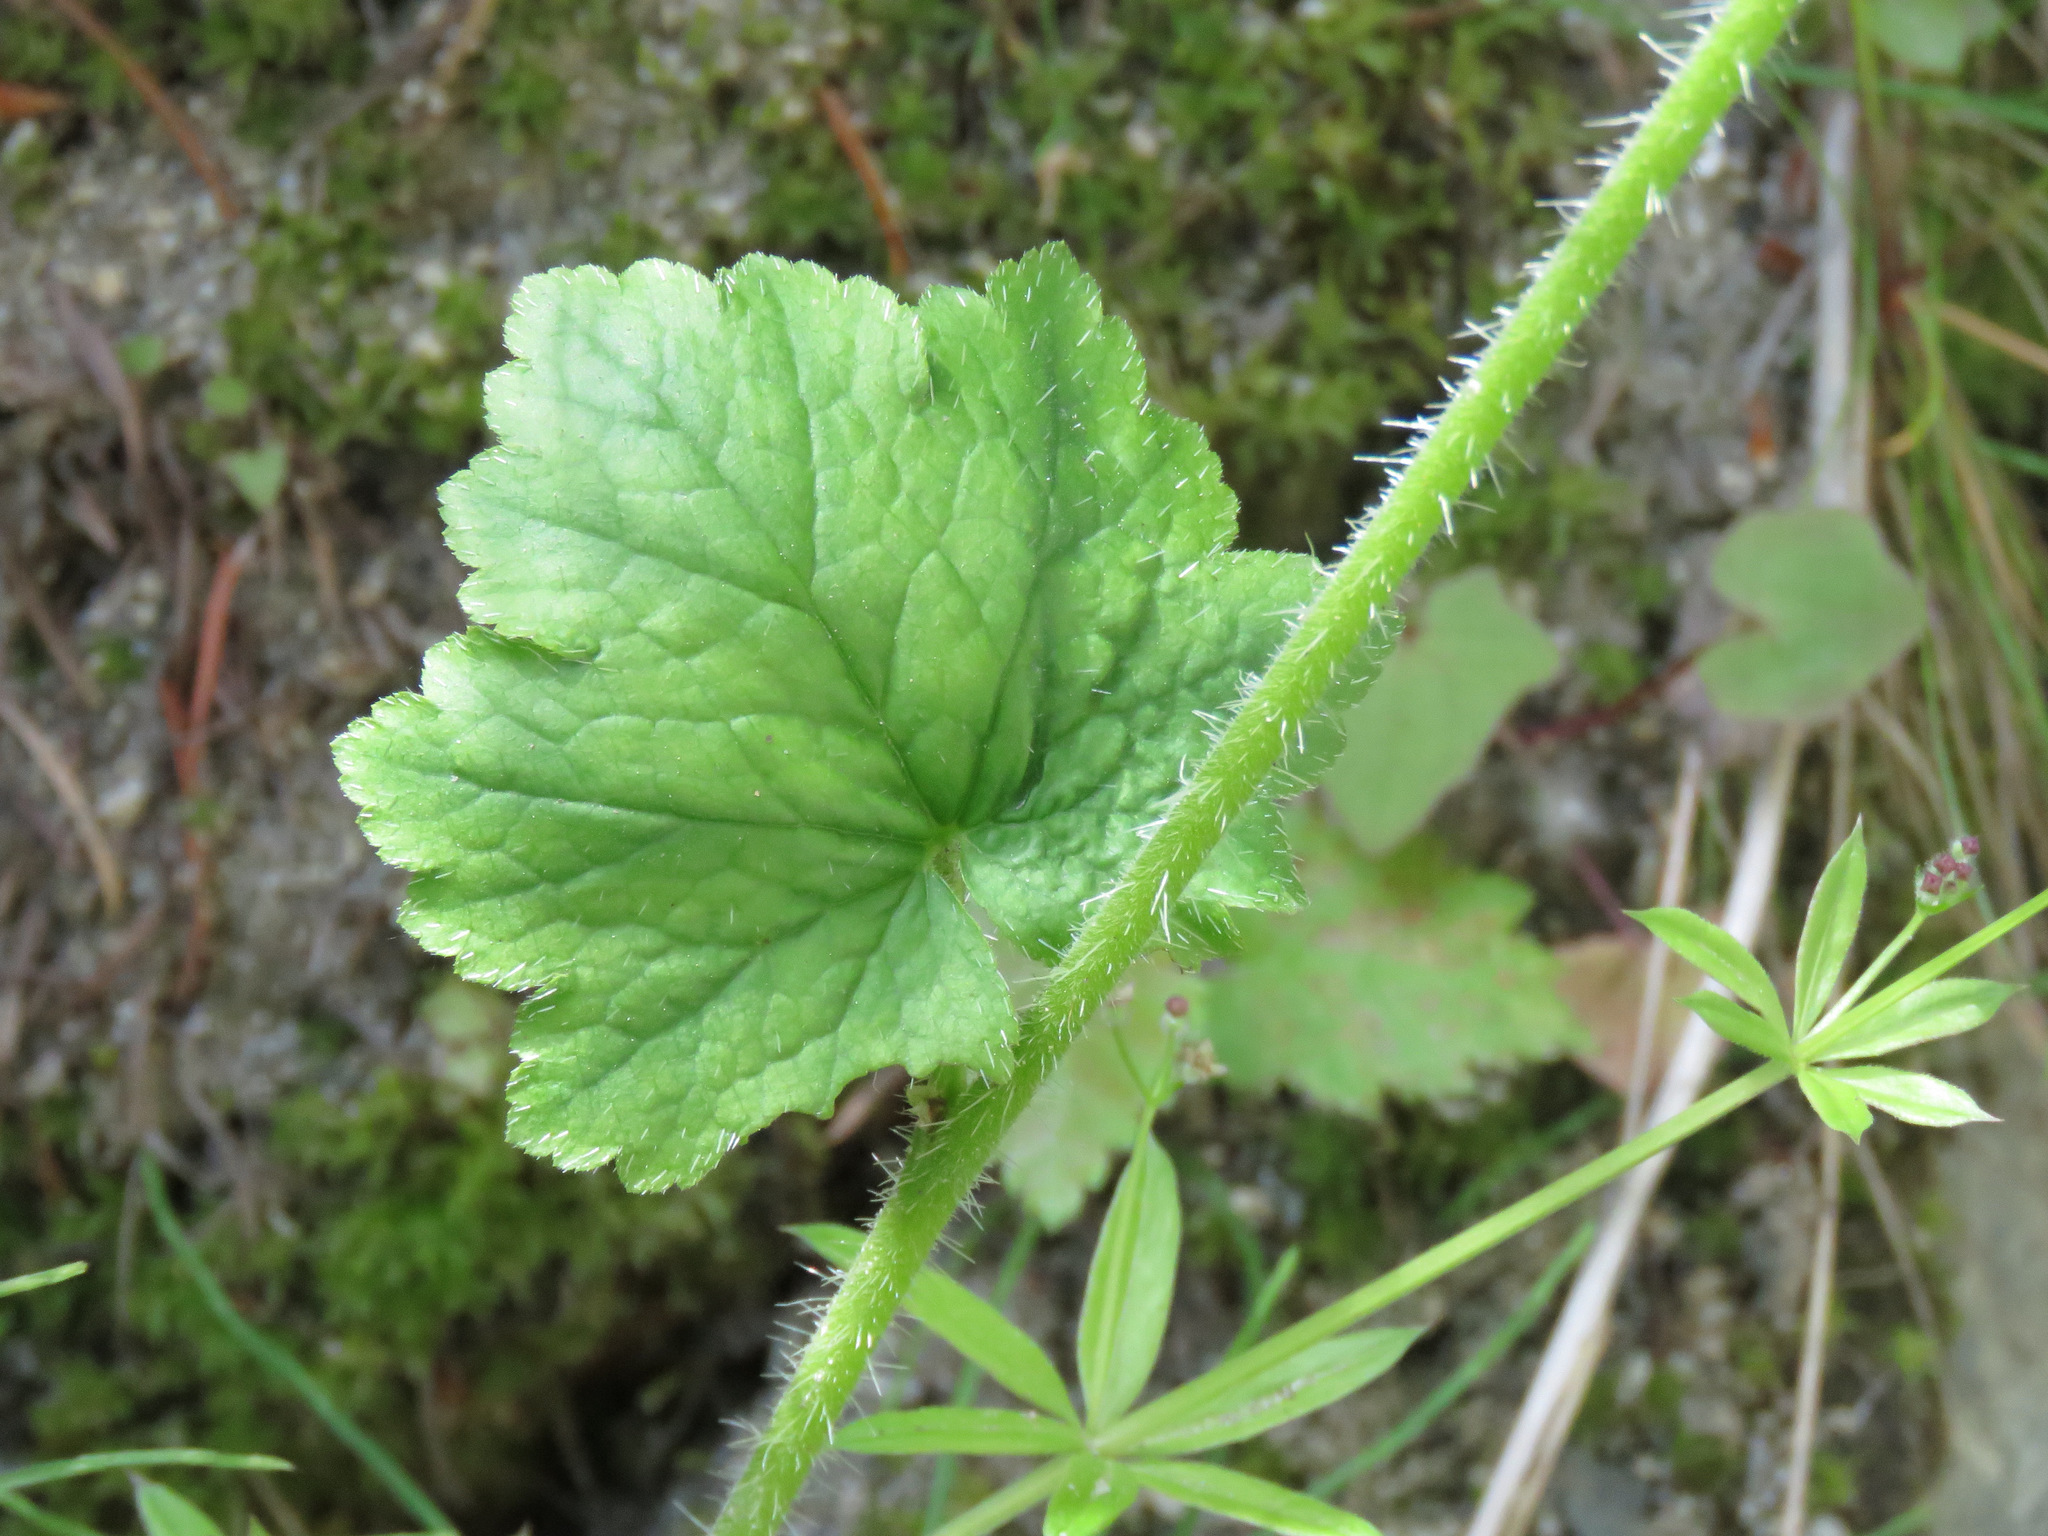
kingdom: Plantae
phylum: Tracheophyta
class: Magnoliopsida
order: Saxifragales
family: Saxifragaceae
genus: Tellima
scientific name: Tellima grandiflora
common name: Fringecups
